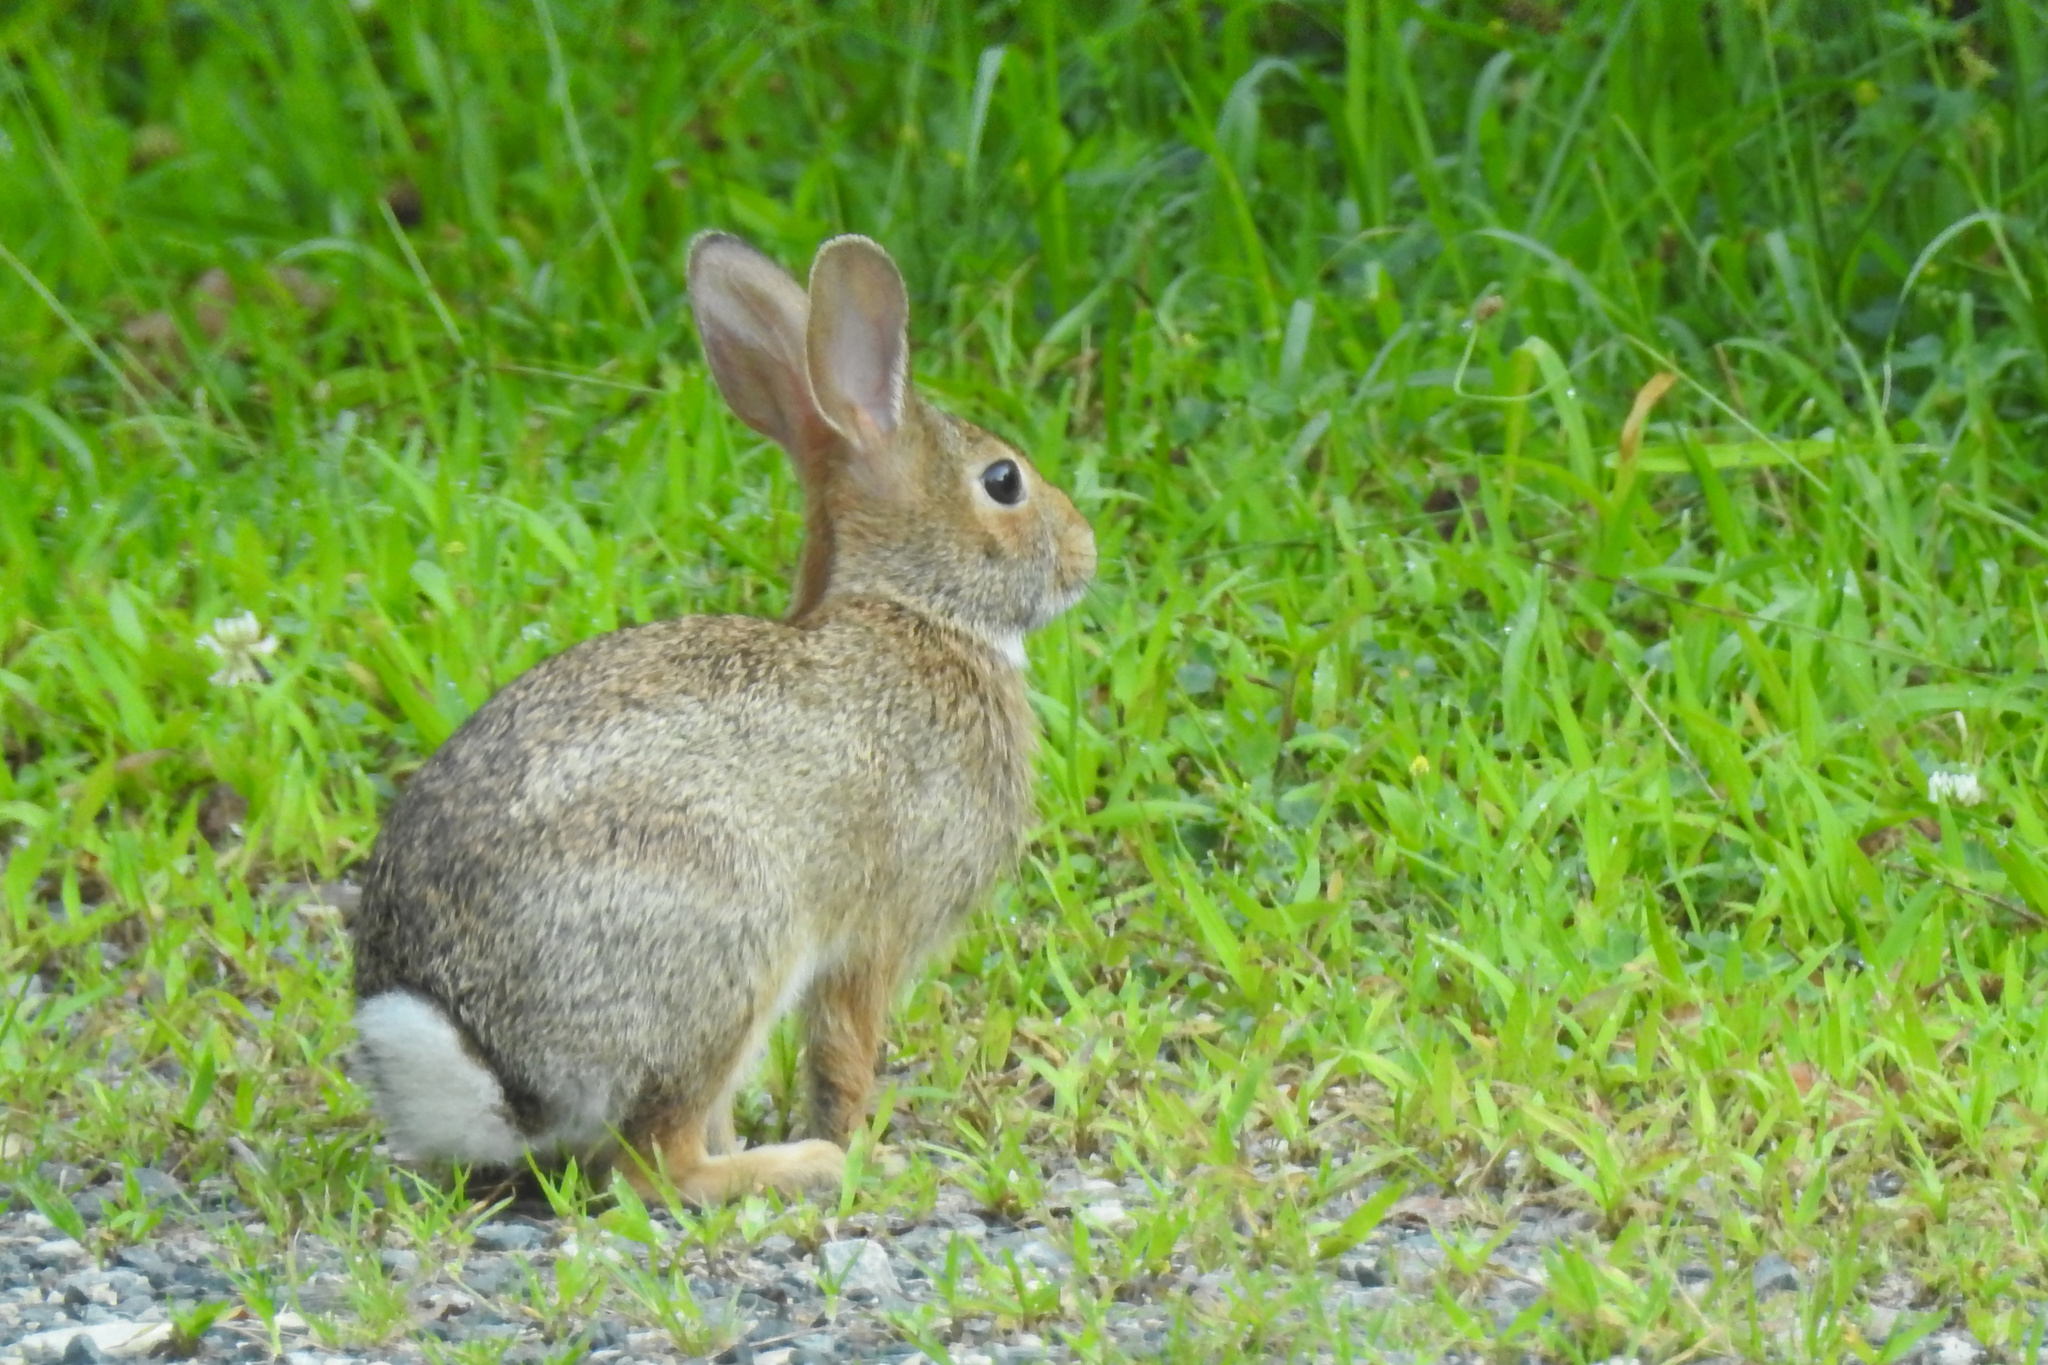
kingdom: Animalia
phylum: Chordata
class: Mammalia
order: Lagomorpha
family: Leporidae
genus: Sylvilagus
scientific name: Sylvilagus floridanus
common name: Eastern cottontail
